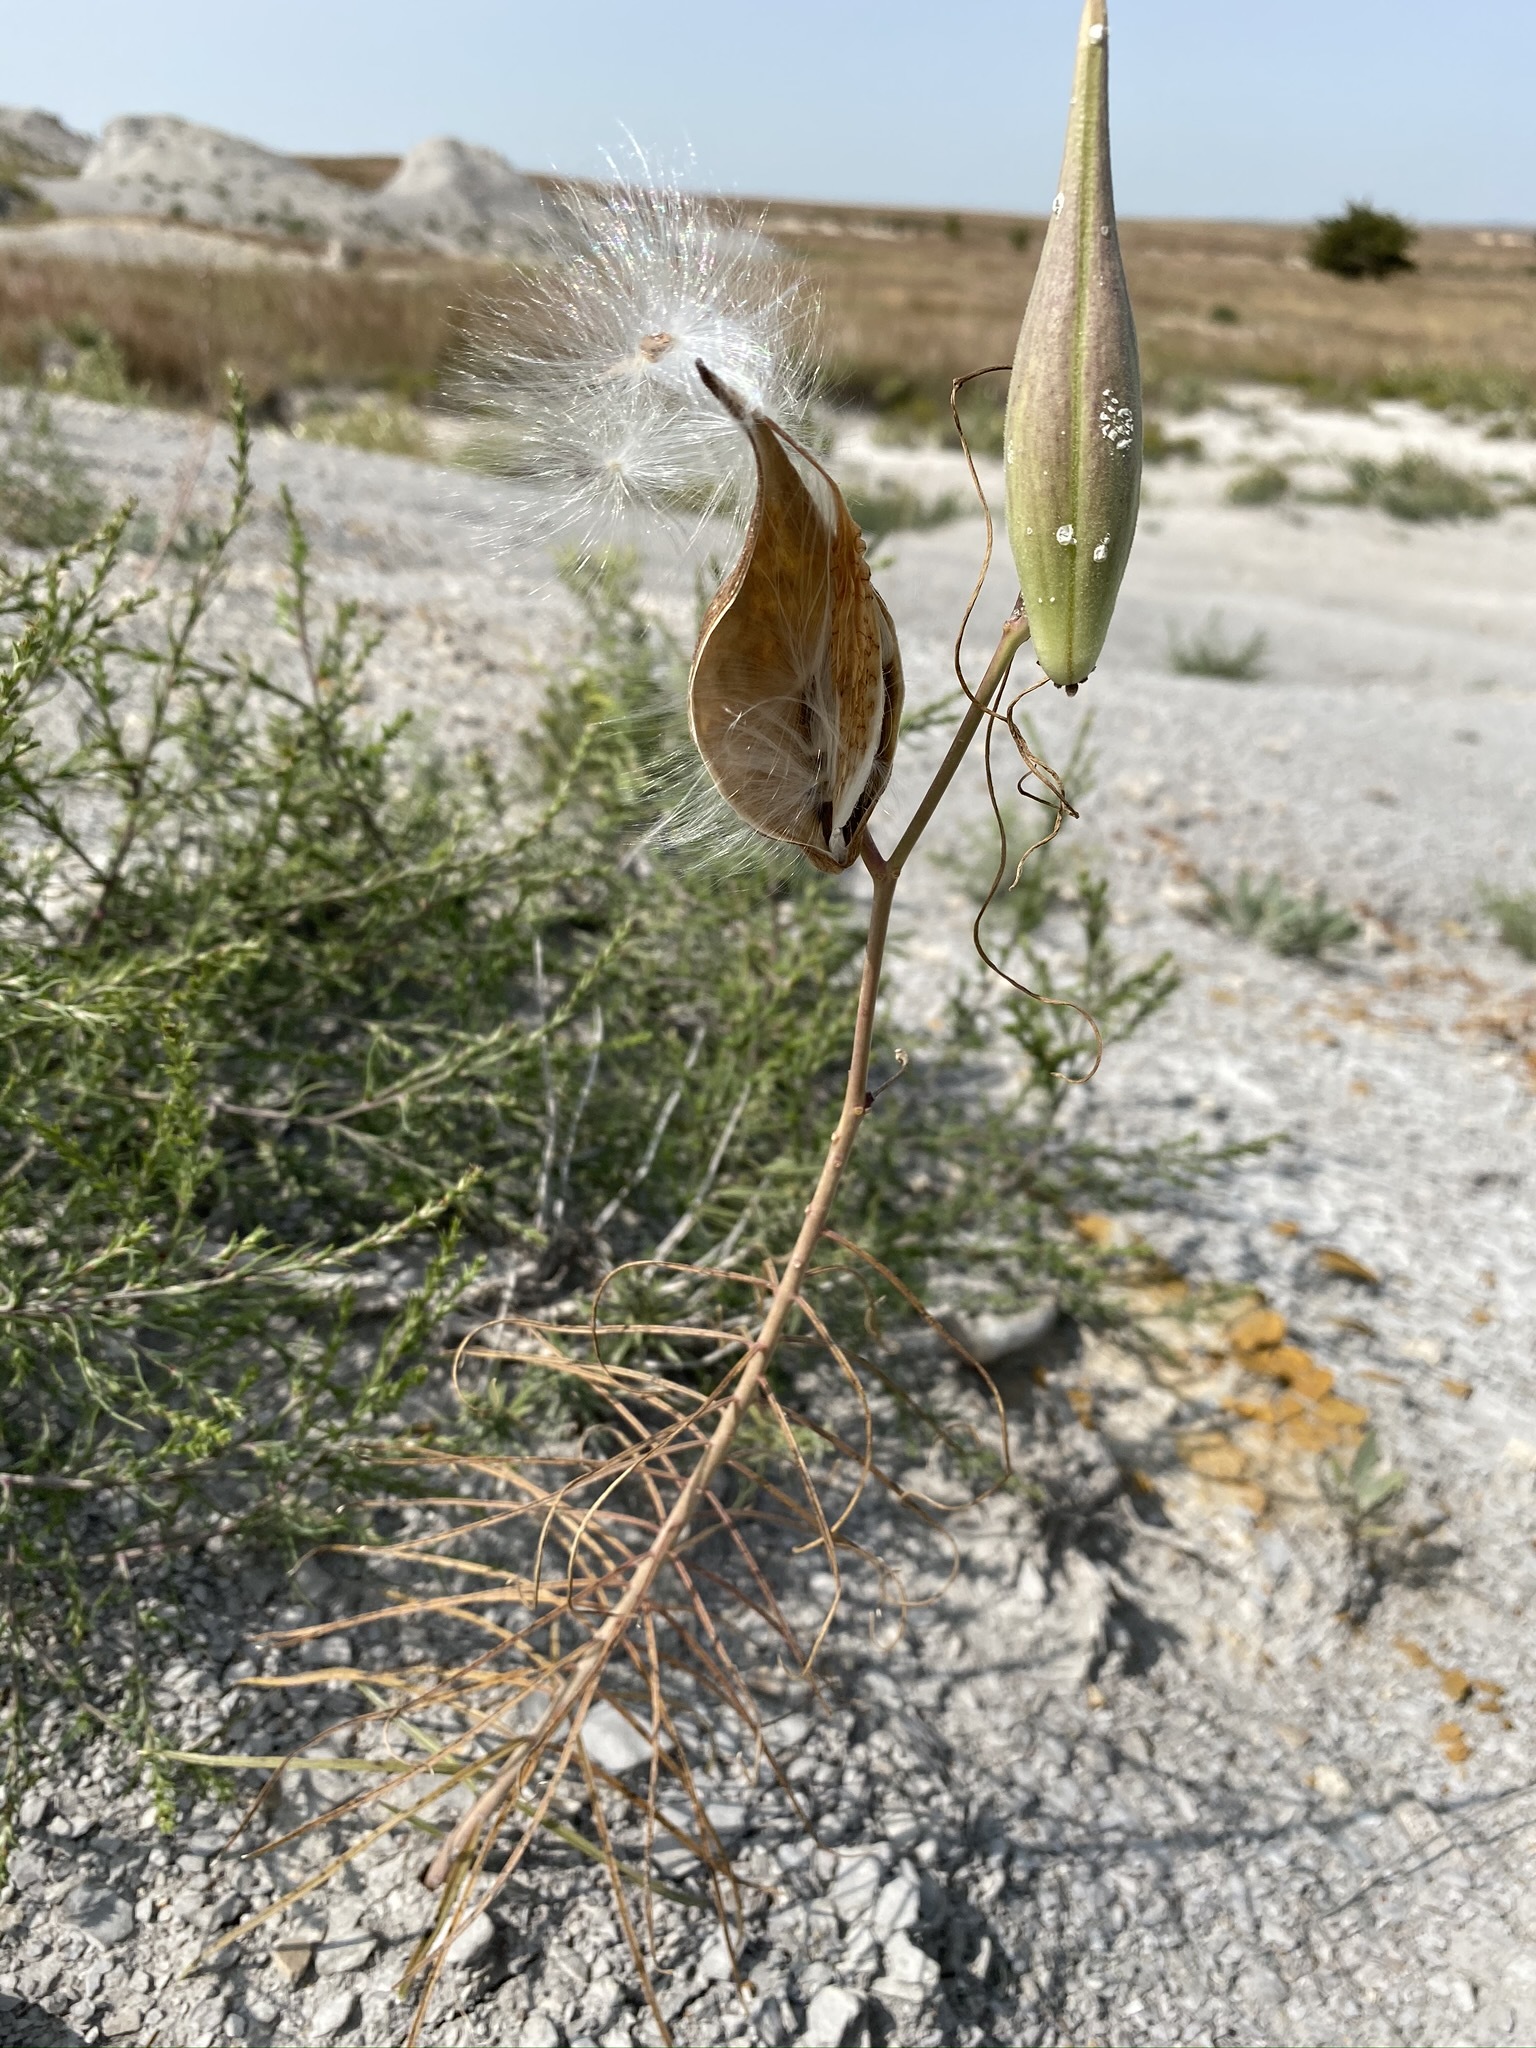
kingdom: Plantae
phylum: Tracheophyta
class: Magnoliopsida
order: Gentianales
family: Apocynaceae
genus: Asclepias
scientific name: Asclepias engelmanniana
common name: Engelmann's milkweed
